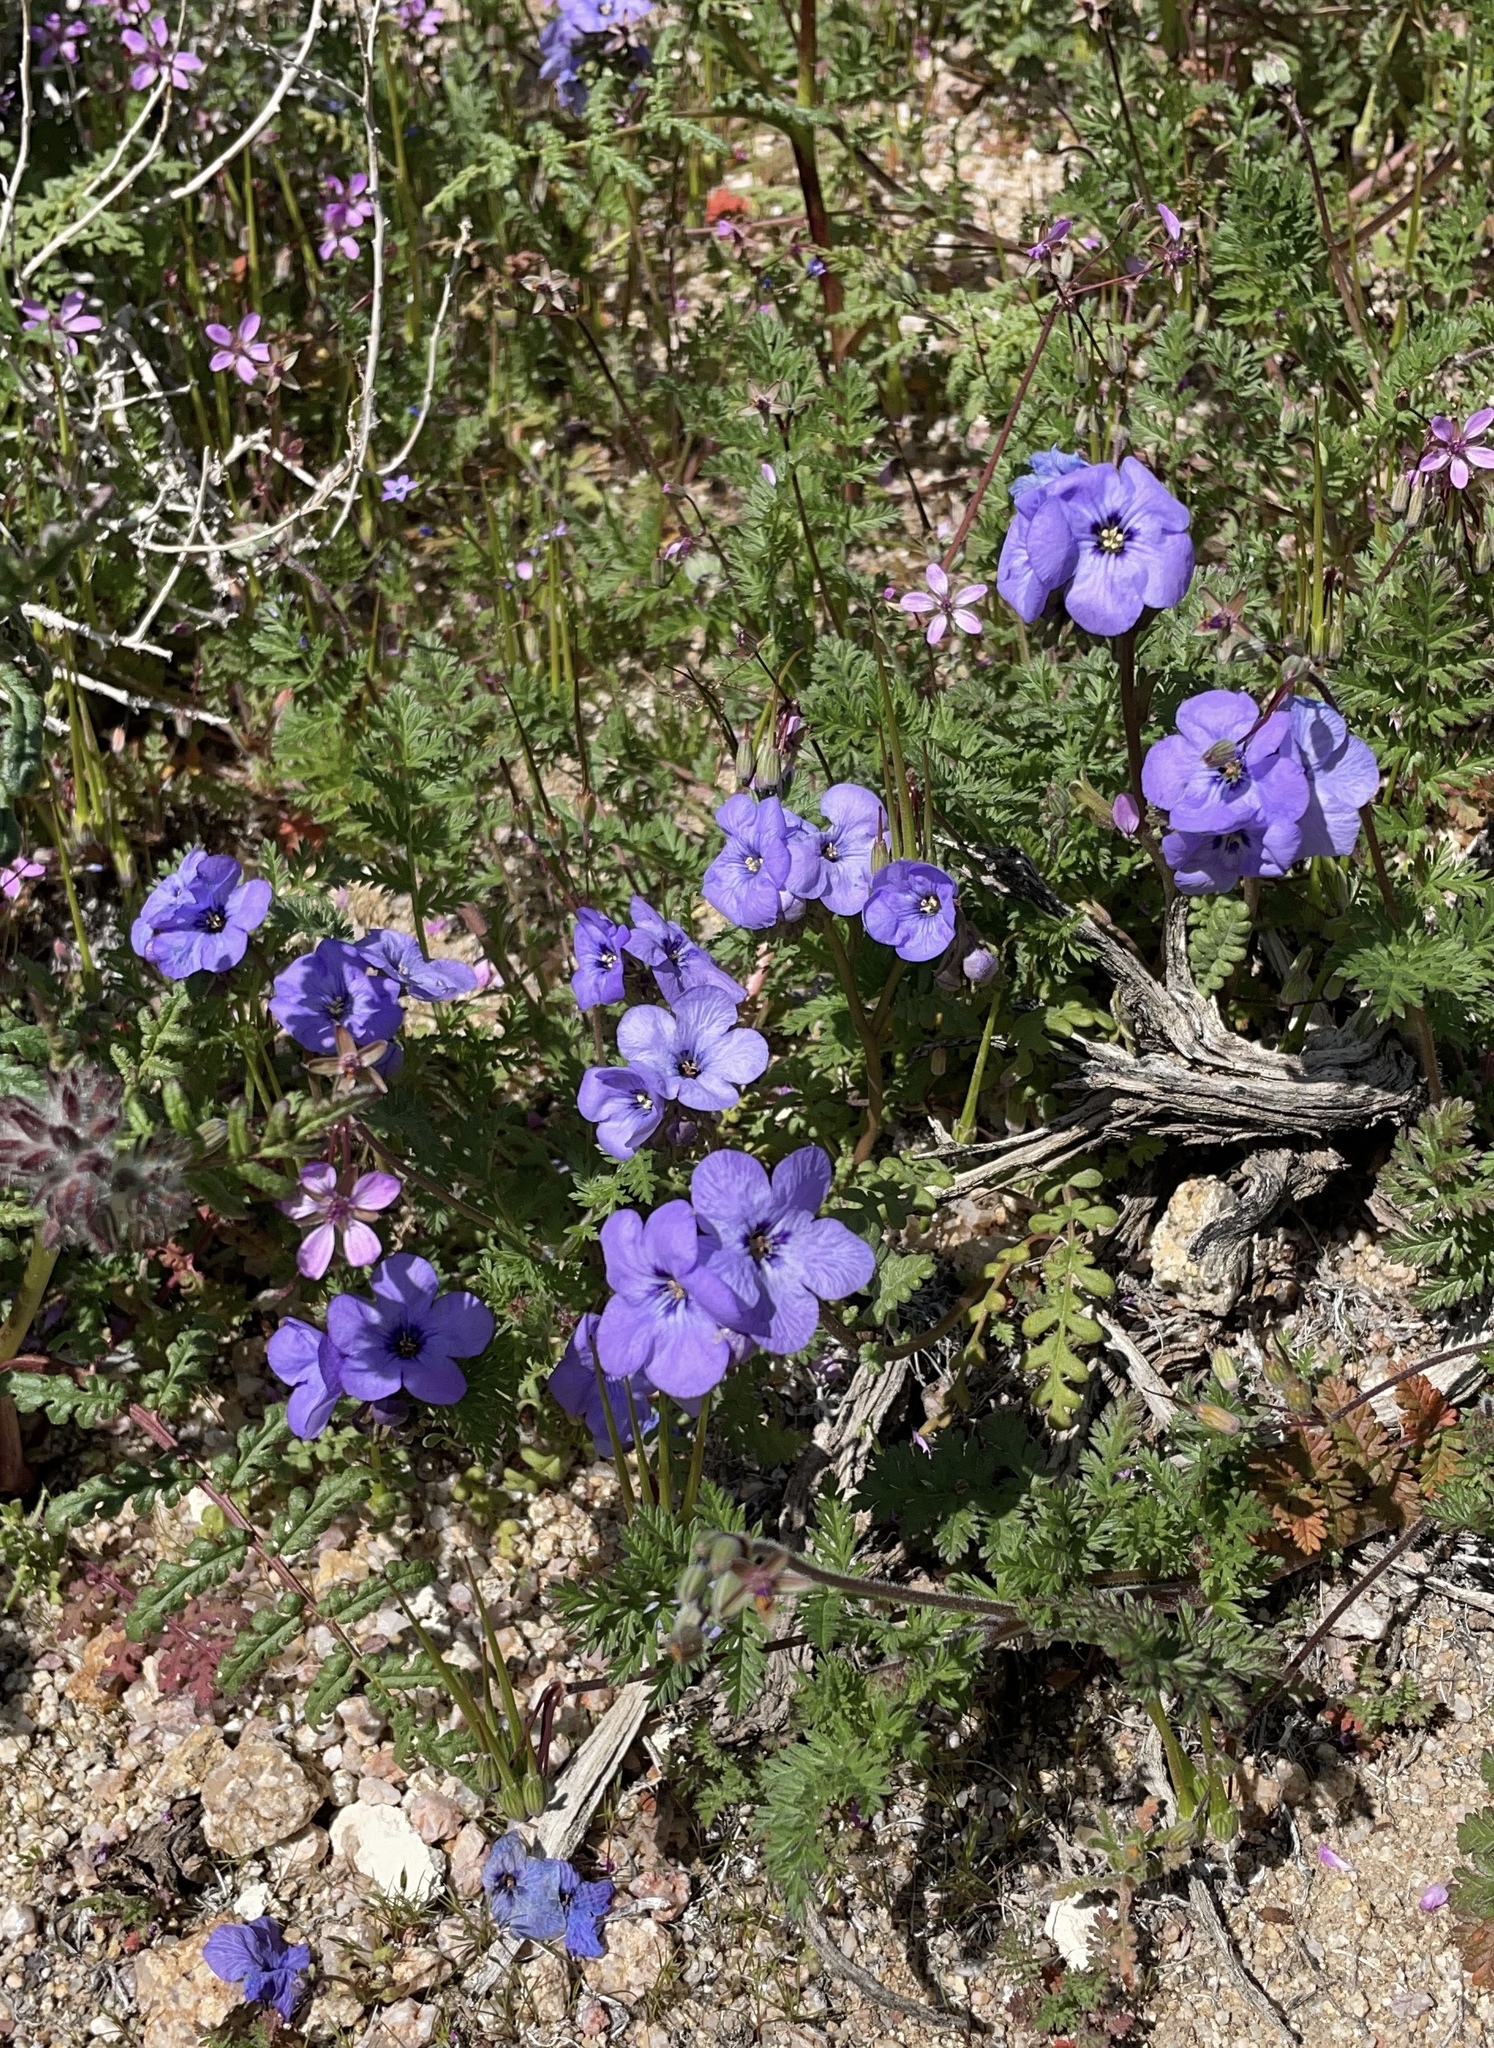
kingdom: Plantae
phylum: Tracheophyta
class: Magnoliopsida
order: Boraginales
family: Hydrophyllaceae
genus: Phacelia
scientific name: Phacelia fremontii
